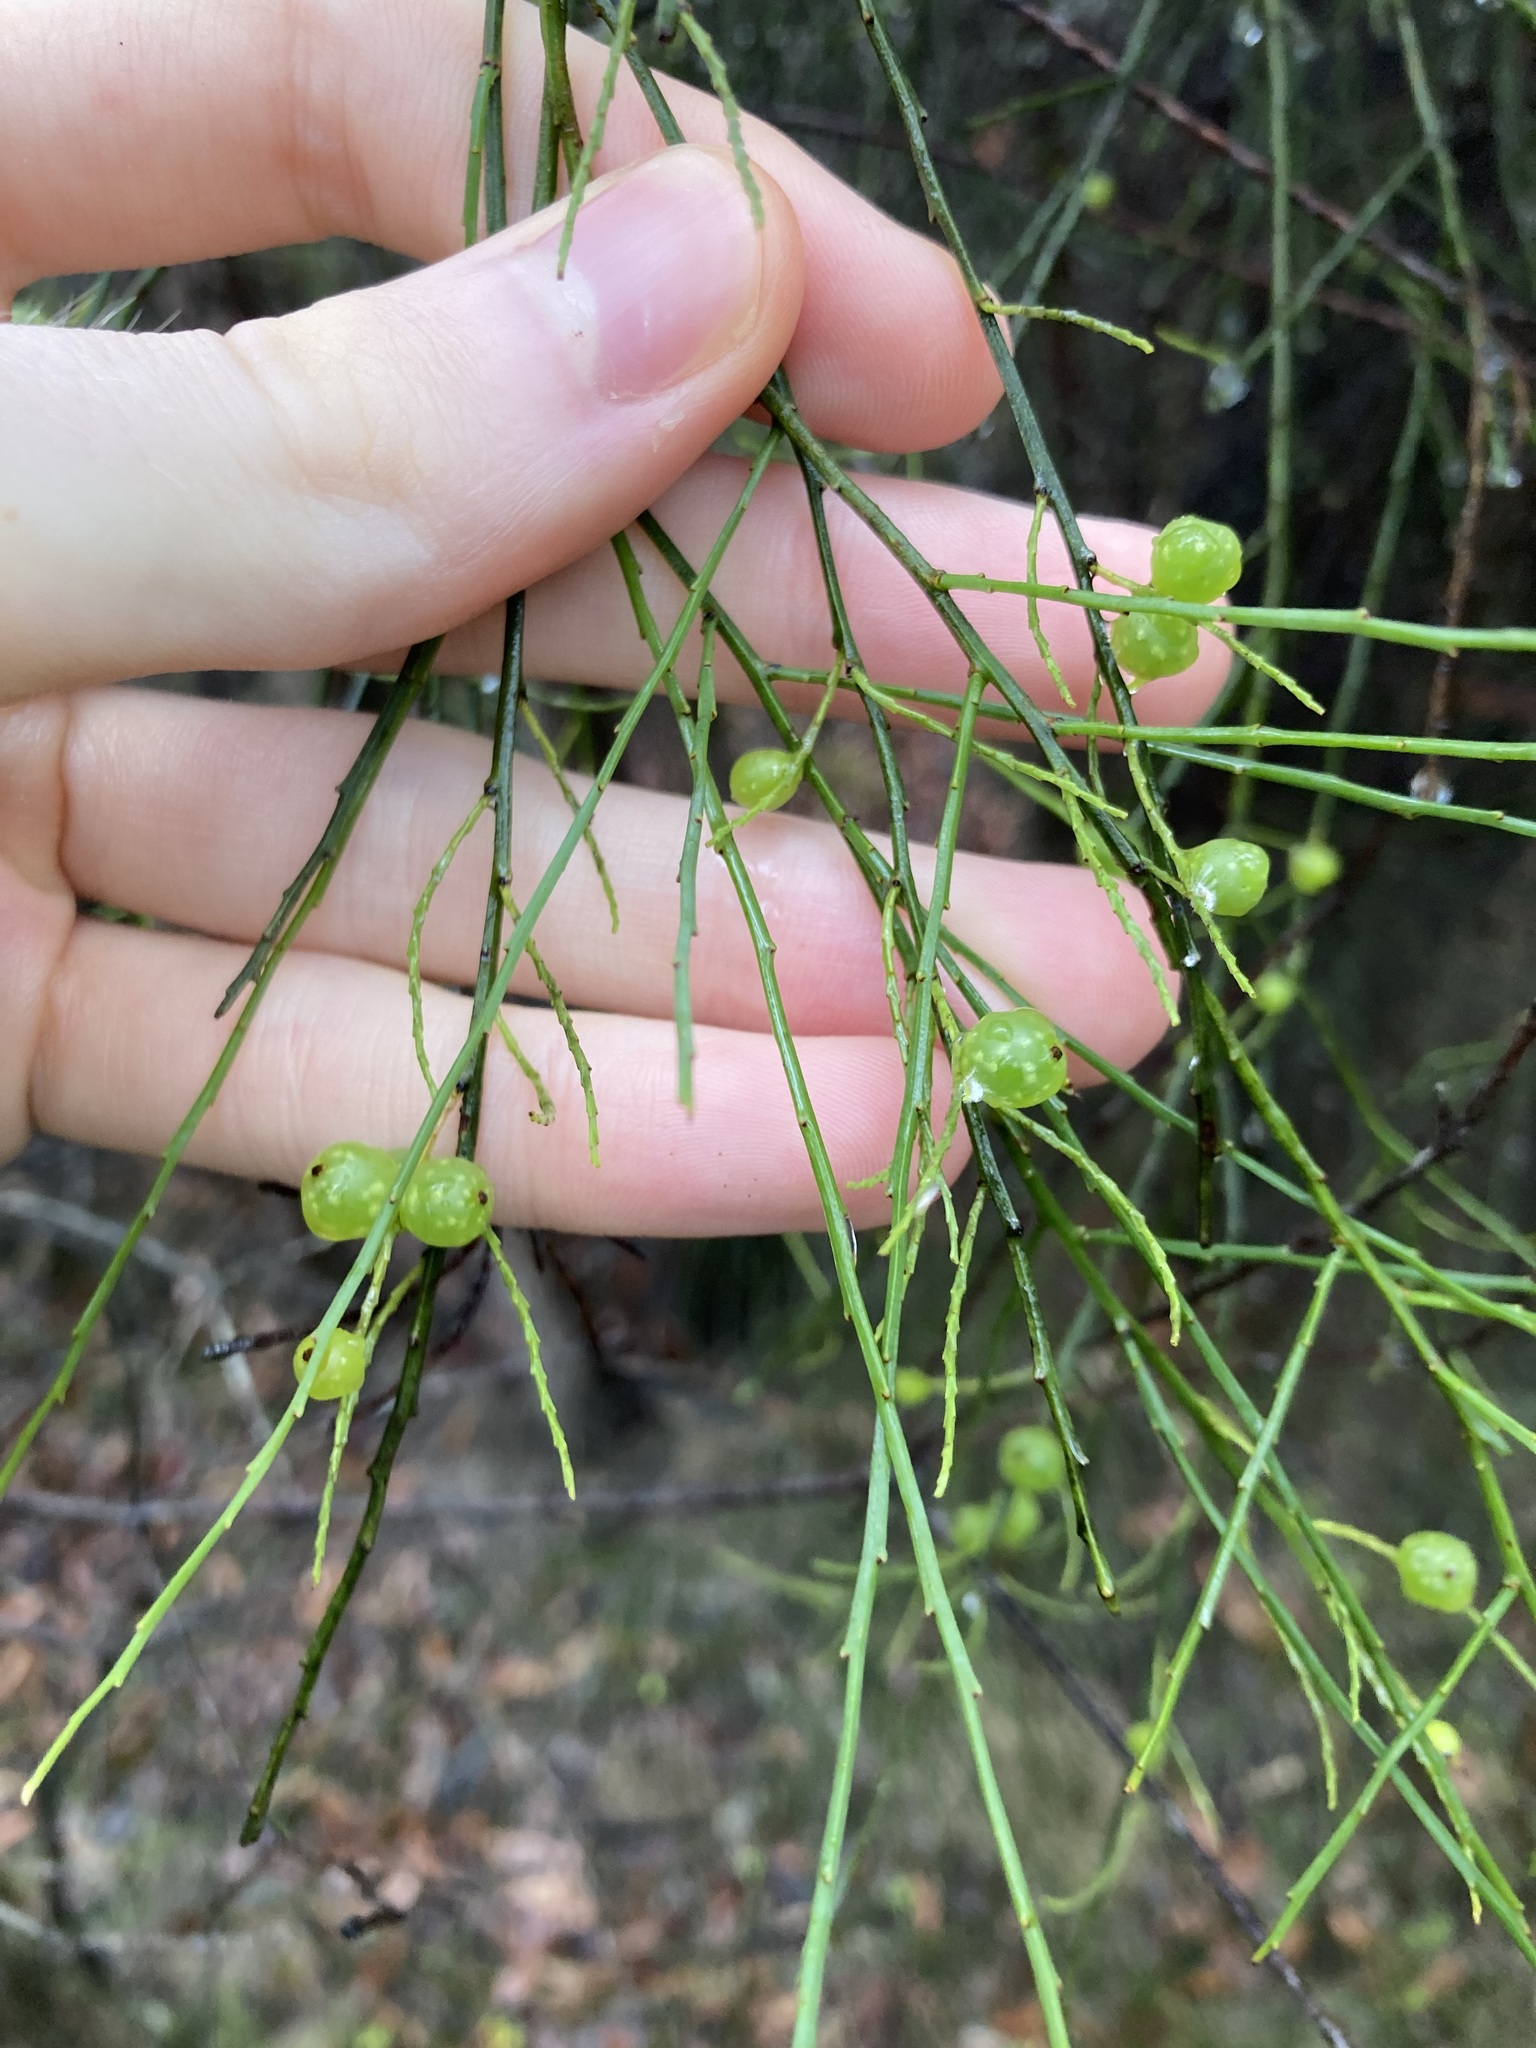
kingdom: Plantae
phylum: Tracheophyta
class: Magnoliopsida
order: Santalales
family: Amphorogynaceae
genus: Leptomeria
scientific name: Leptomeria acida
